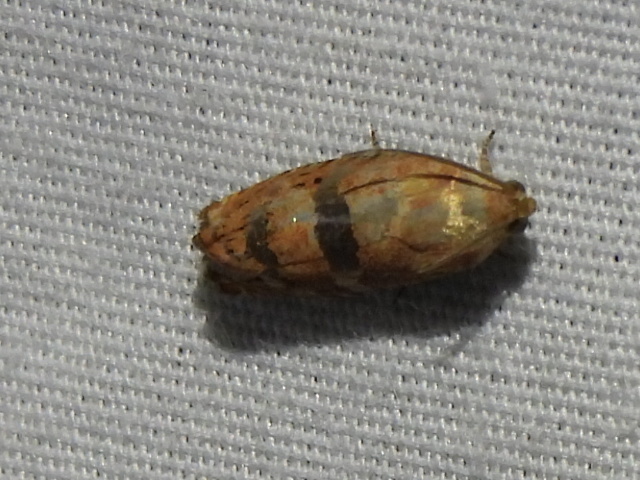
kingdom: Animalia
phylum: Arthropoda
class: Insecta
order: Lepidoptera
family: Tortricidae
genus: Cydia
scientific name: Cydia latiferreana
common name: Filbertworm moth
